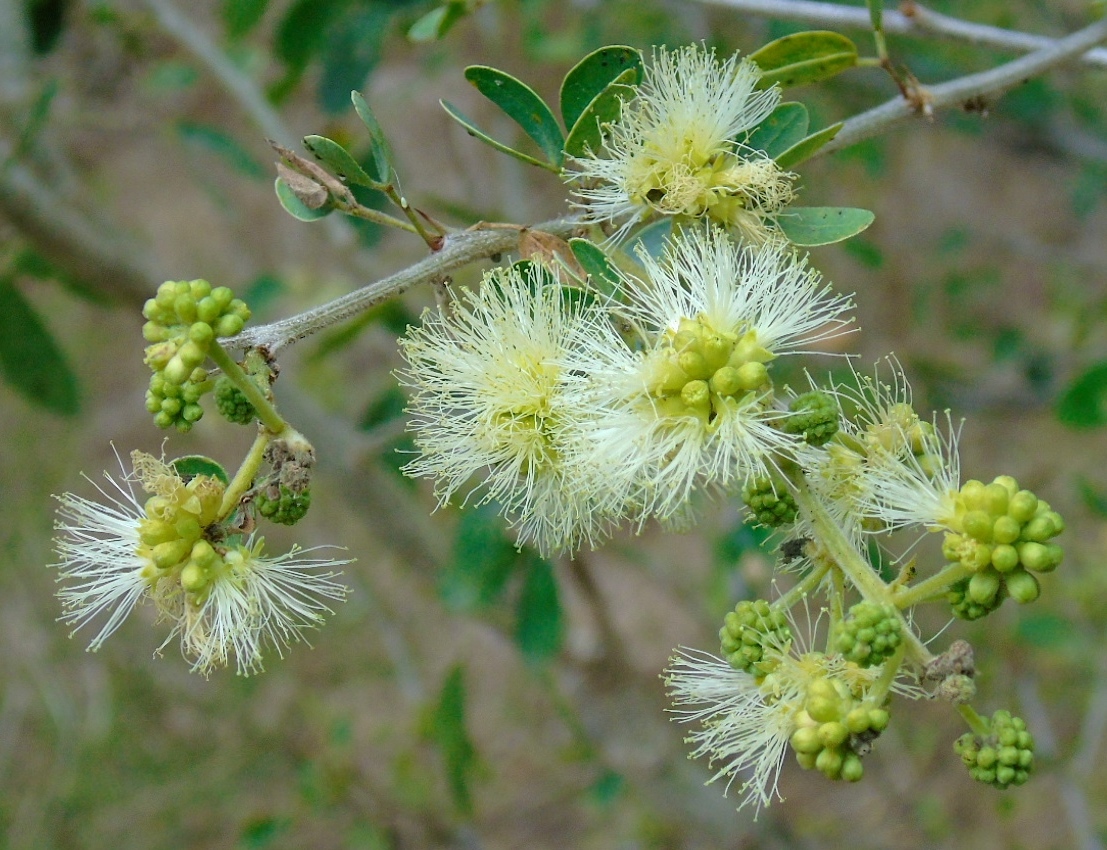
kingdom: Plantae
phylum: Tracheophyta
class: Magnoliopsida
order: Fabales
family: Fabaceae
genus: Pithecellobium
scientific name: Pithecellobium dulce
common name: Monkeypod
